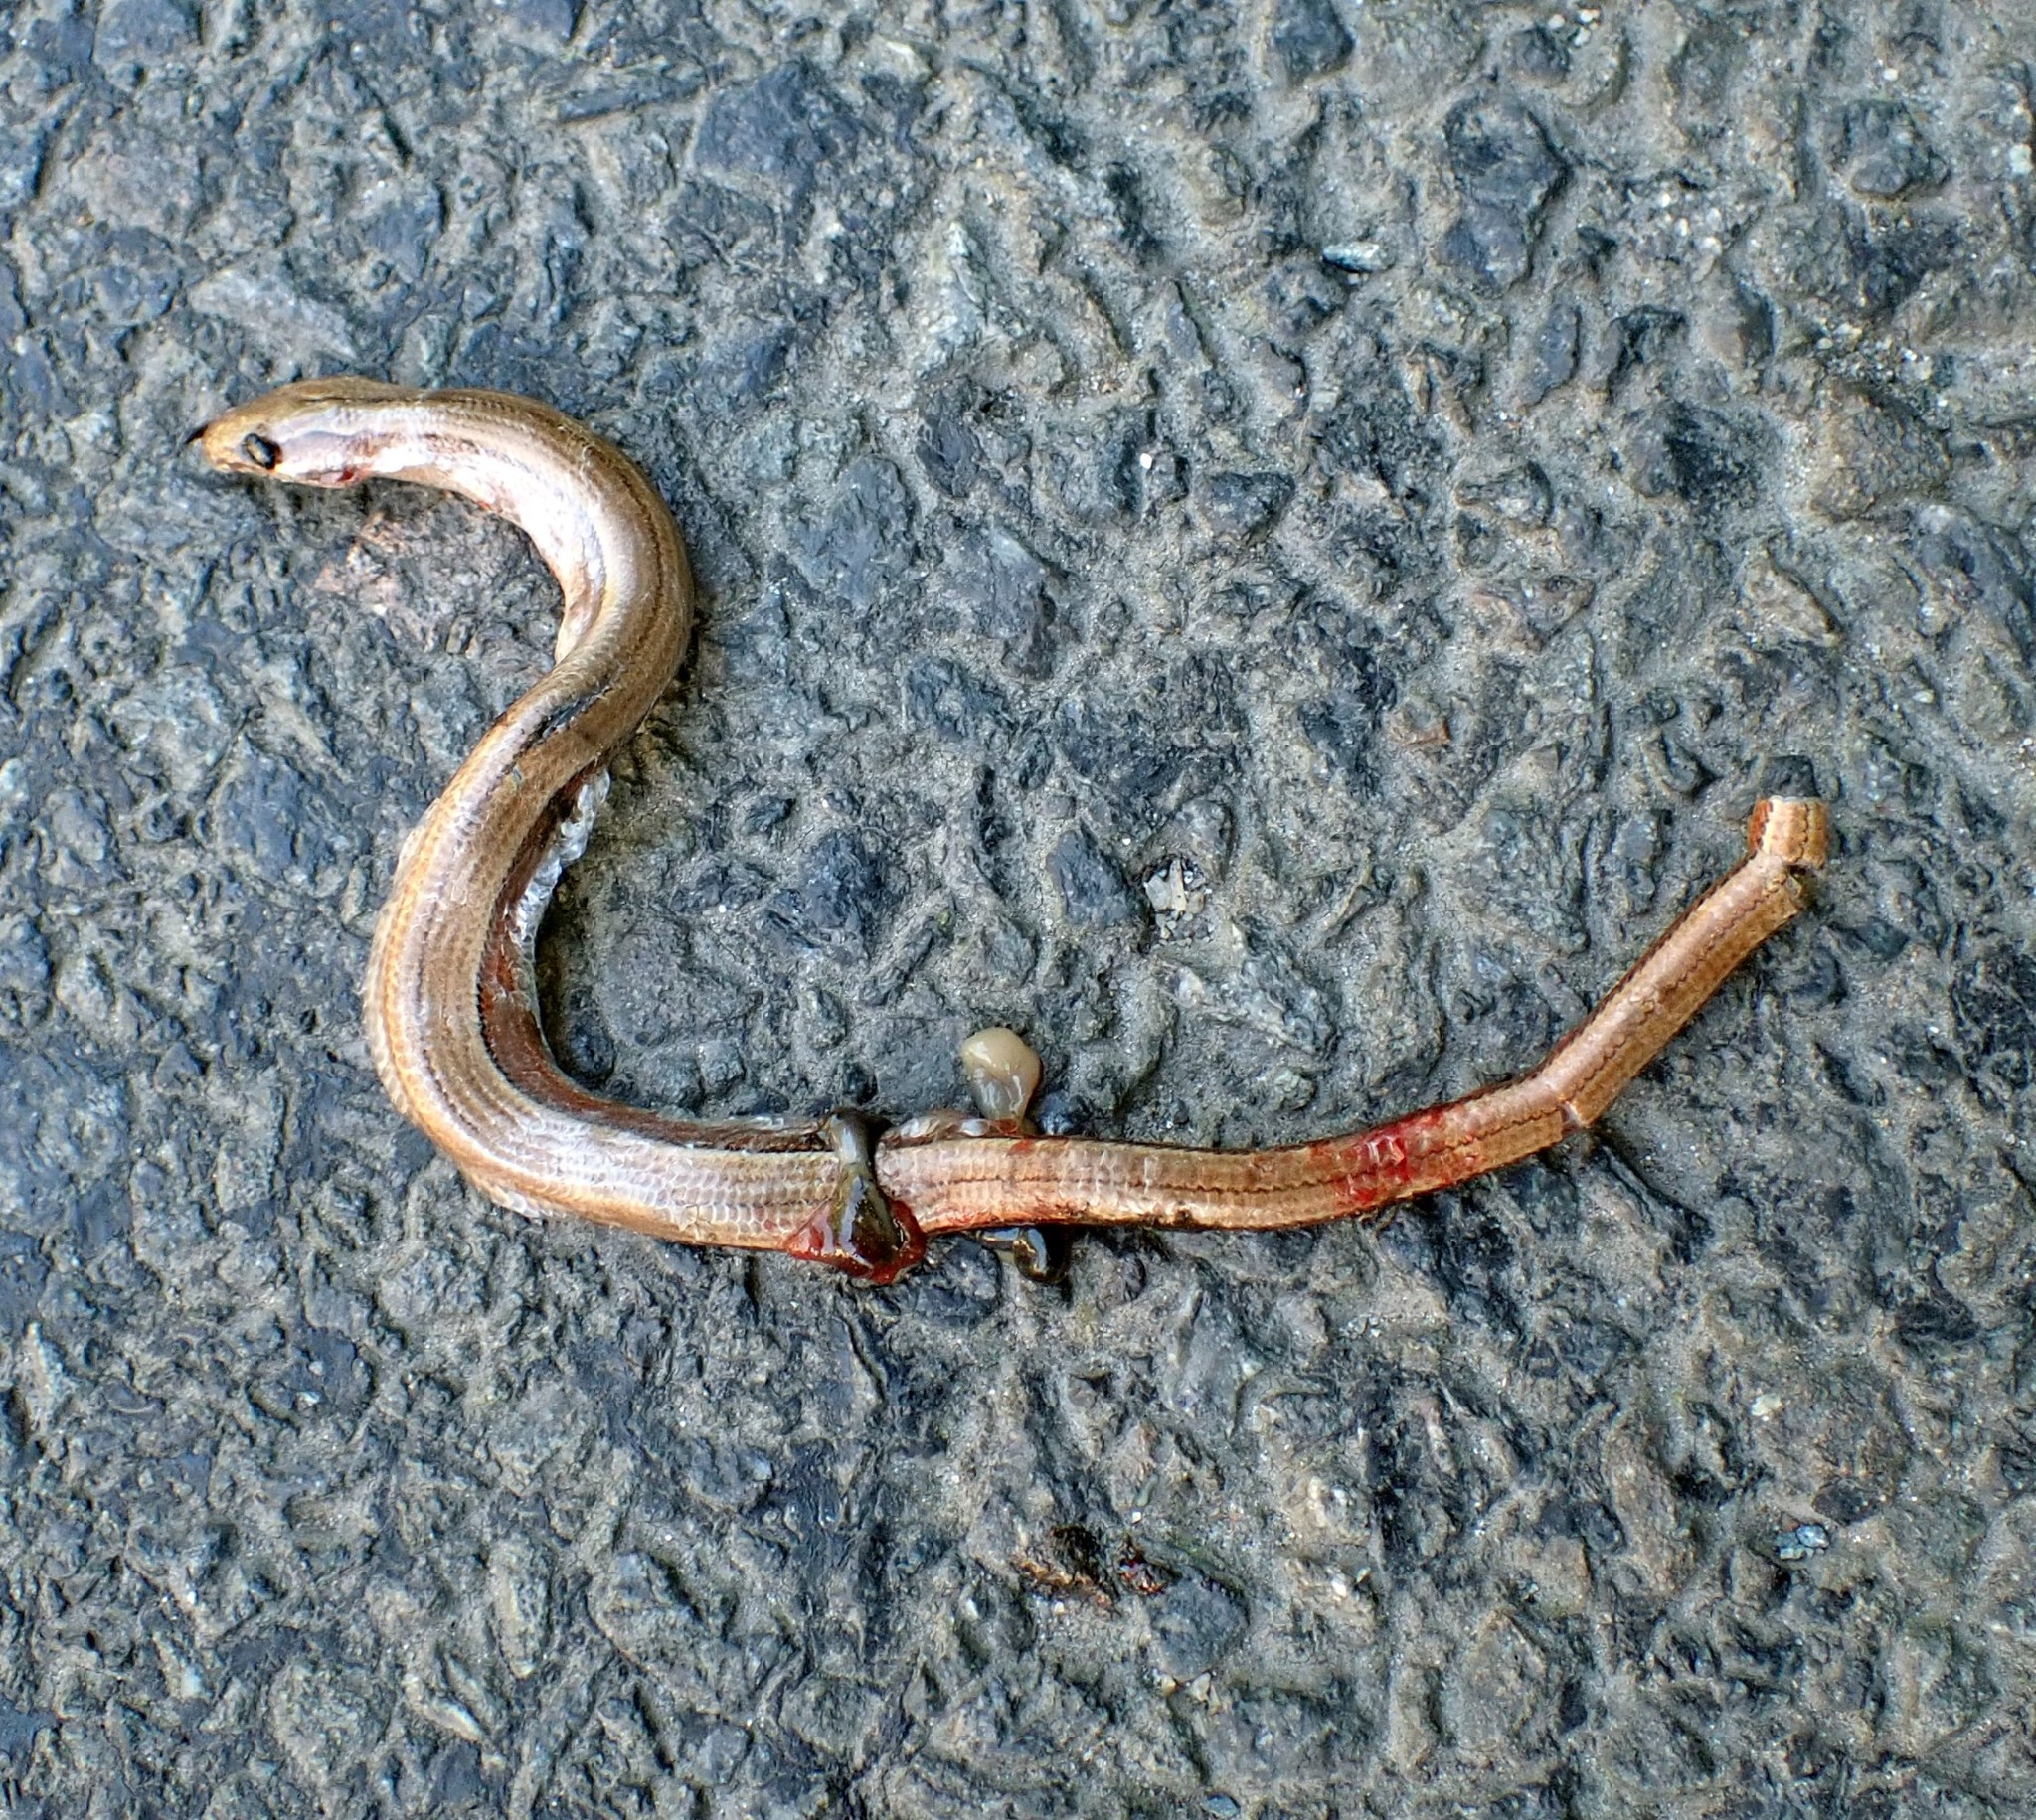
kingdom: Animalia
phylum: Chordata
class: Squamata
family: Anguidae
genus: Anguis
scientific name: Anguis fragilis
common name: Slow worm
